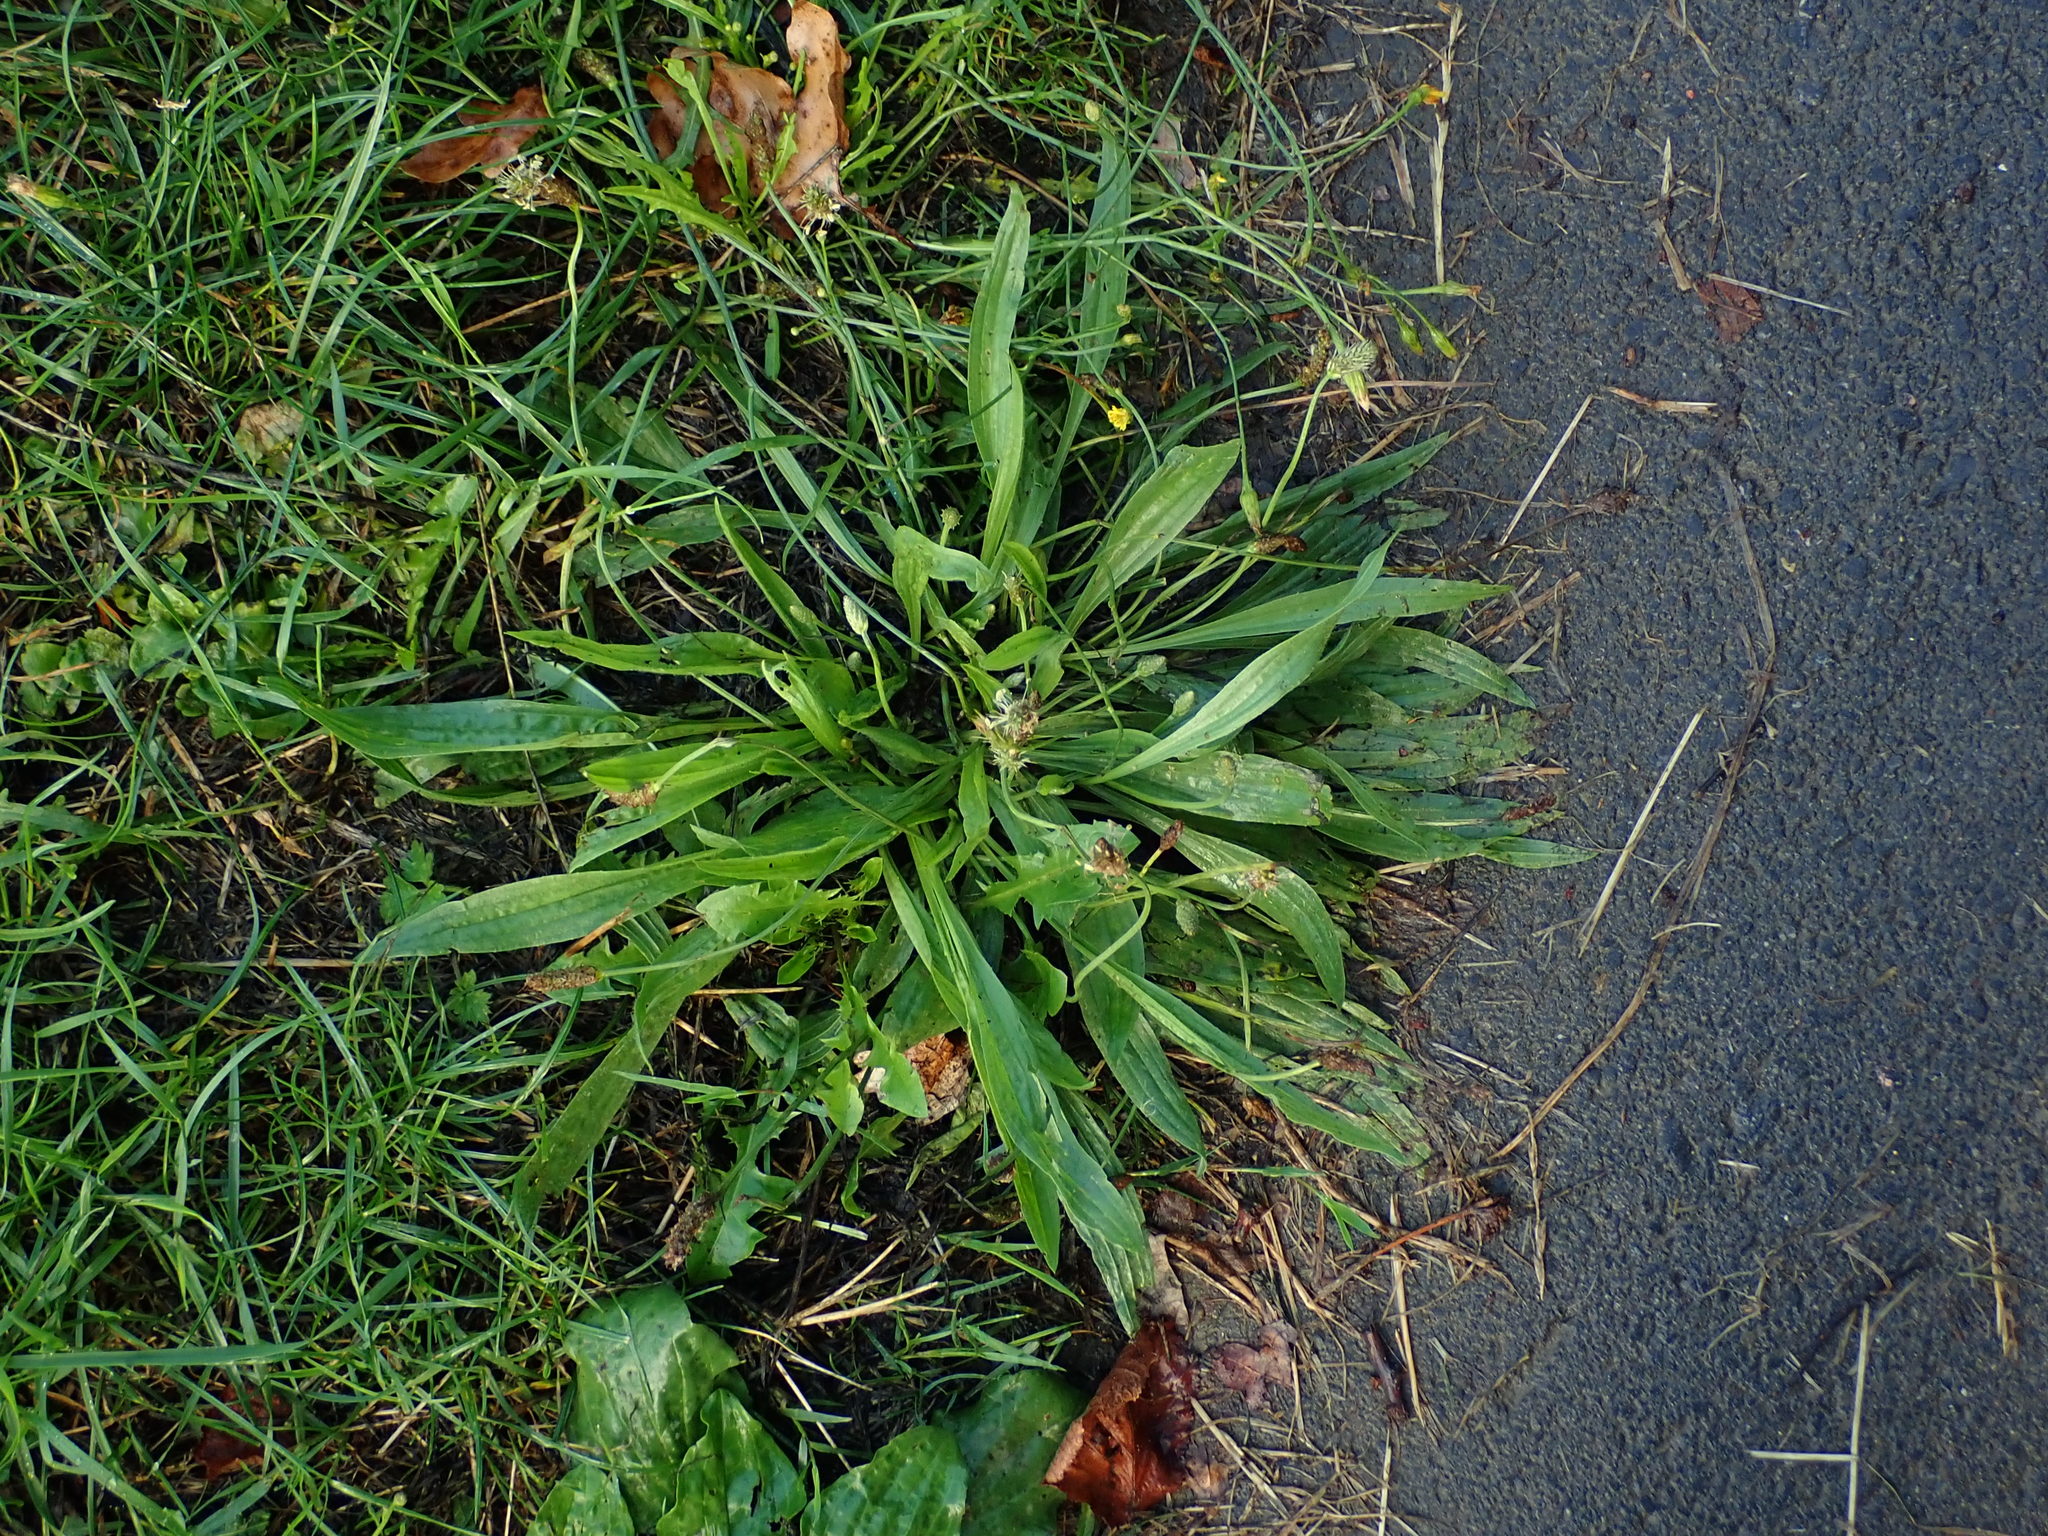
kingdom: Plantae
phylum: Tracheophyta
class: Magnoliopsida
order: Lamiales
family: Plantaginaceae
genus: Plantago
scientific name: Plantago lanceolata
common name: Ribwort plantain
